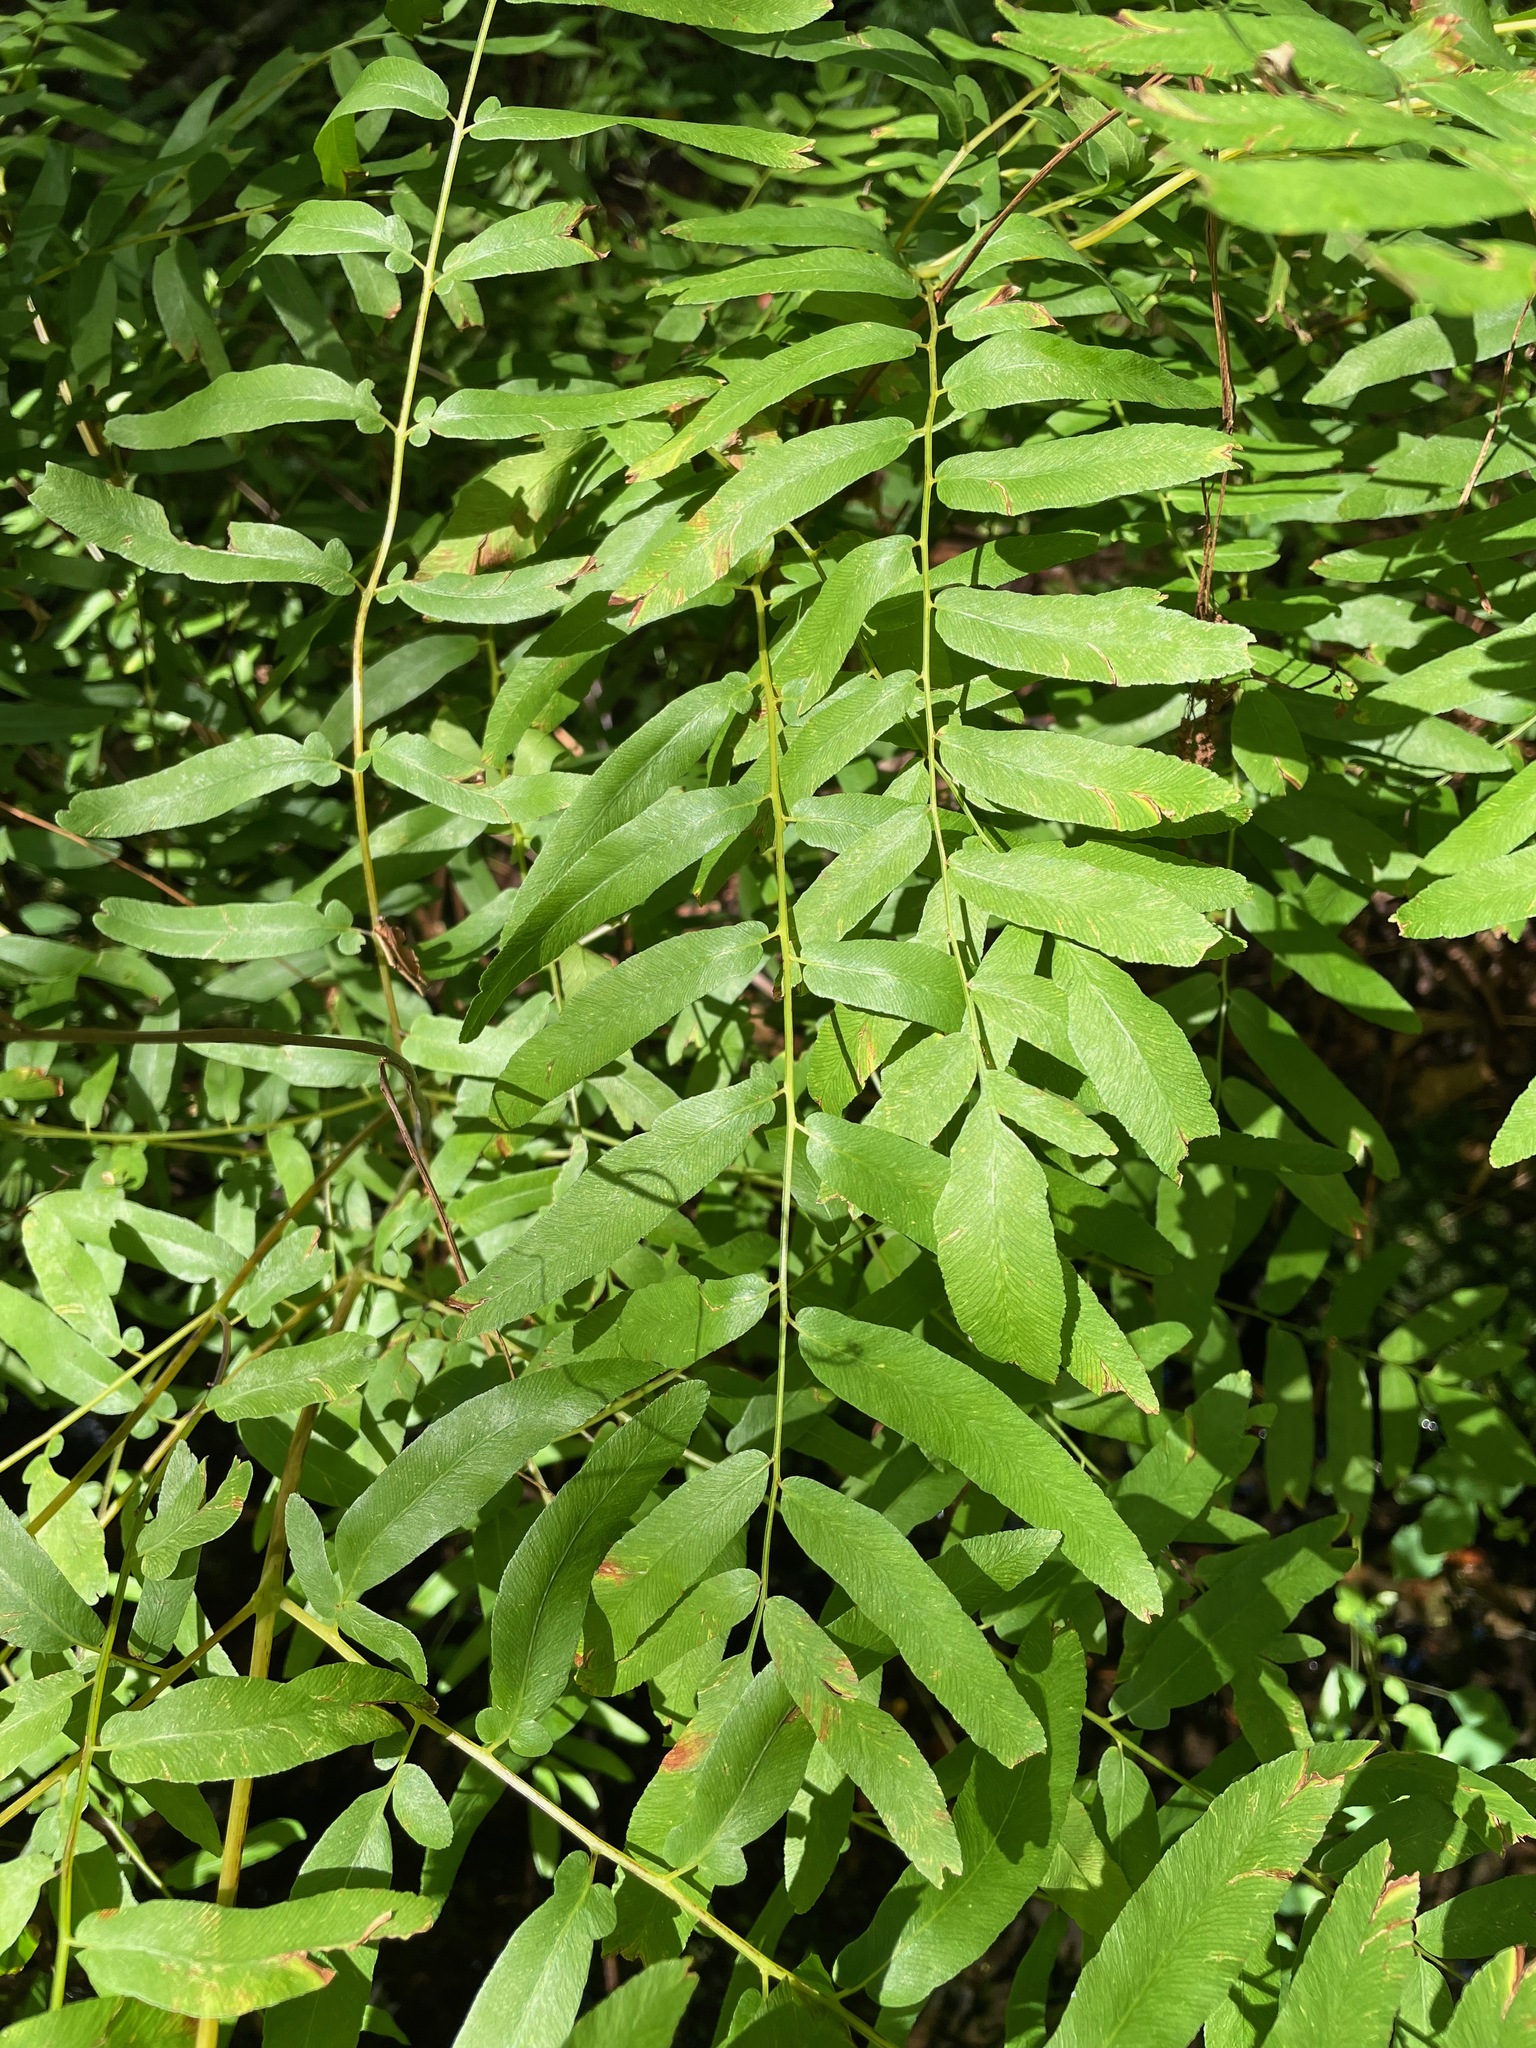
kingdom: Plantae
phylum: Tracheophyta
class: Polypodiopsida
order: Osmundales
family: Osmundaceae
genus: Osmunda
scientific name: Osmunda spectabilis
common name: American royal fern
